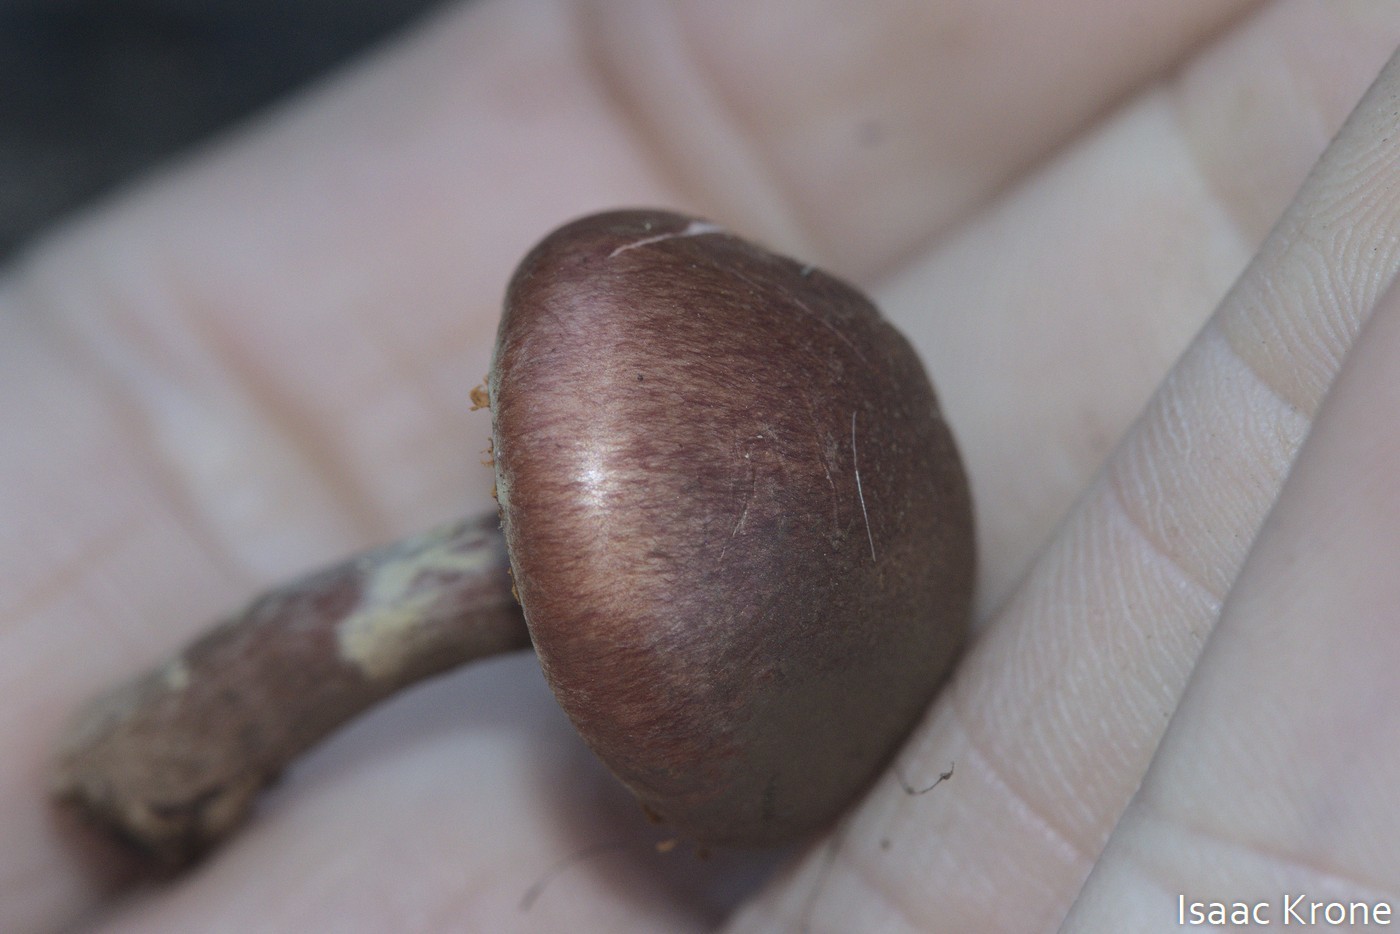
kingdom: Fungi
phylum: Basidiomycota
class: Agaricomycetes
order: Agaricales
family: Hymenogastraceae
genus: Gymnopilus
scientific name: Gymnopilus luteofolius
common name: Yellow-gilled gymnopilus
